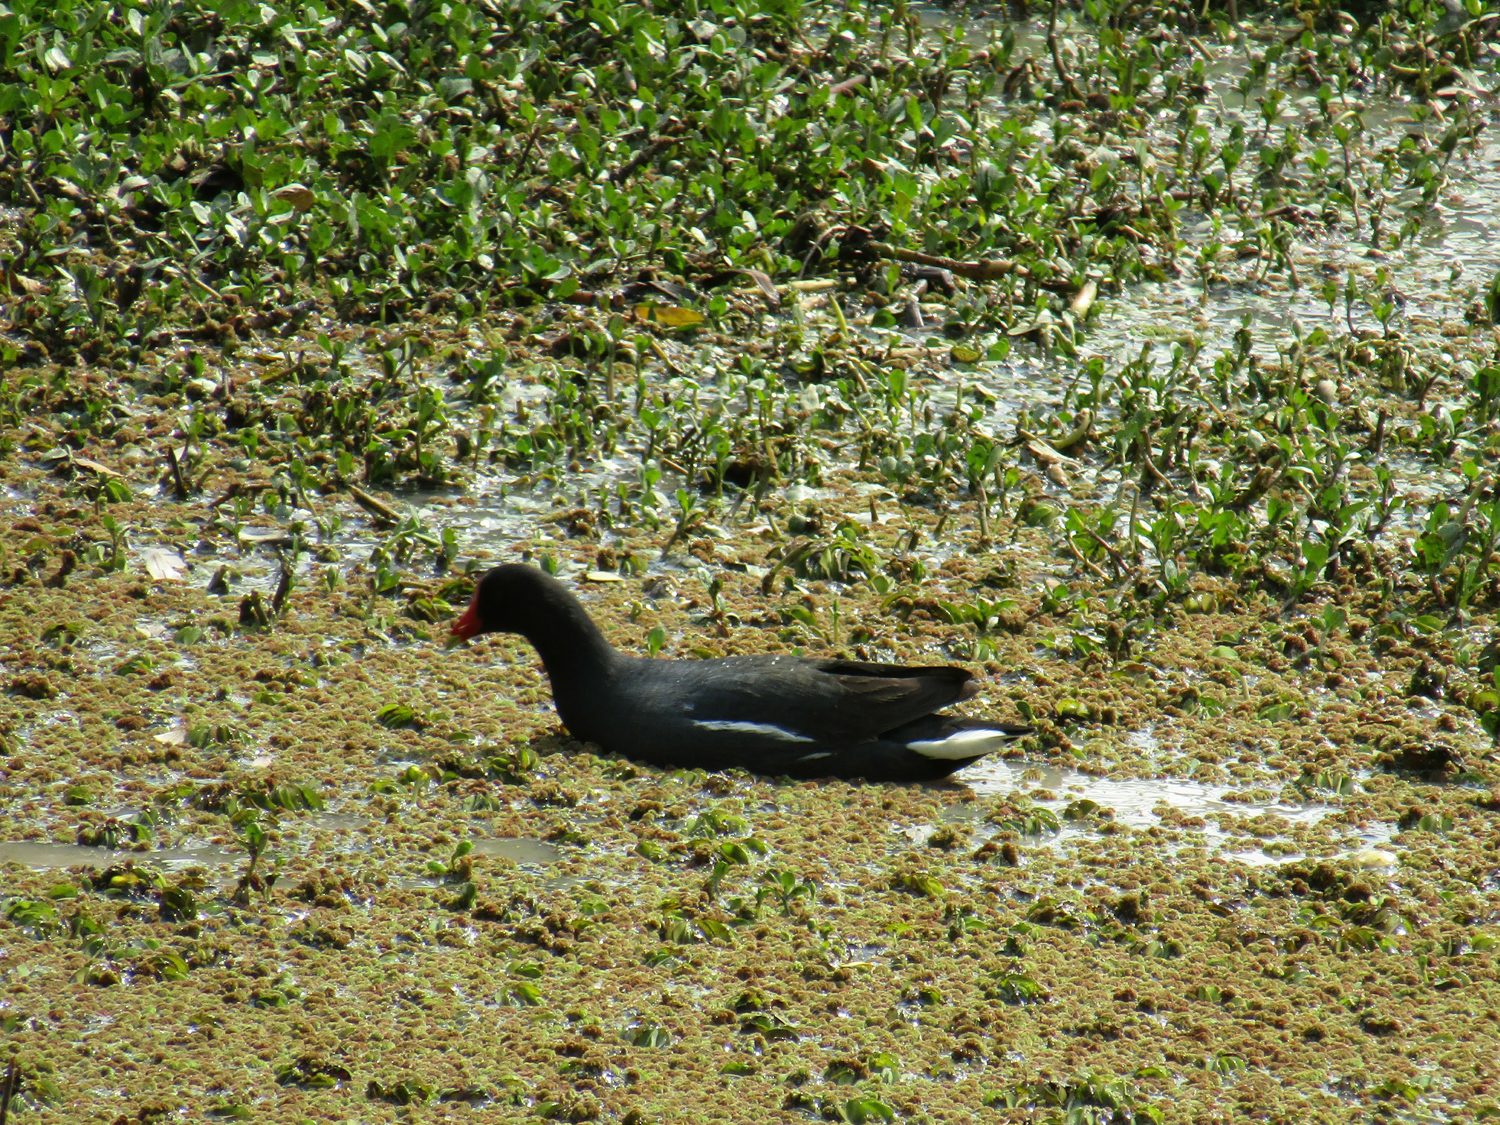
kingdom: Animalia
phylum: Chordata
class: Aves
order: Gruiformes
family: Rallidae
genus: Gallinula
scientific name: Gallinula chloropus
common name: Common moorhen
